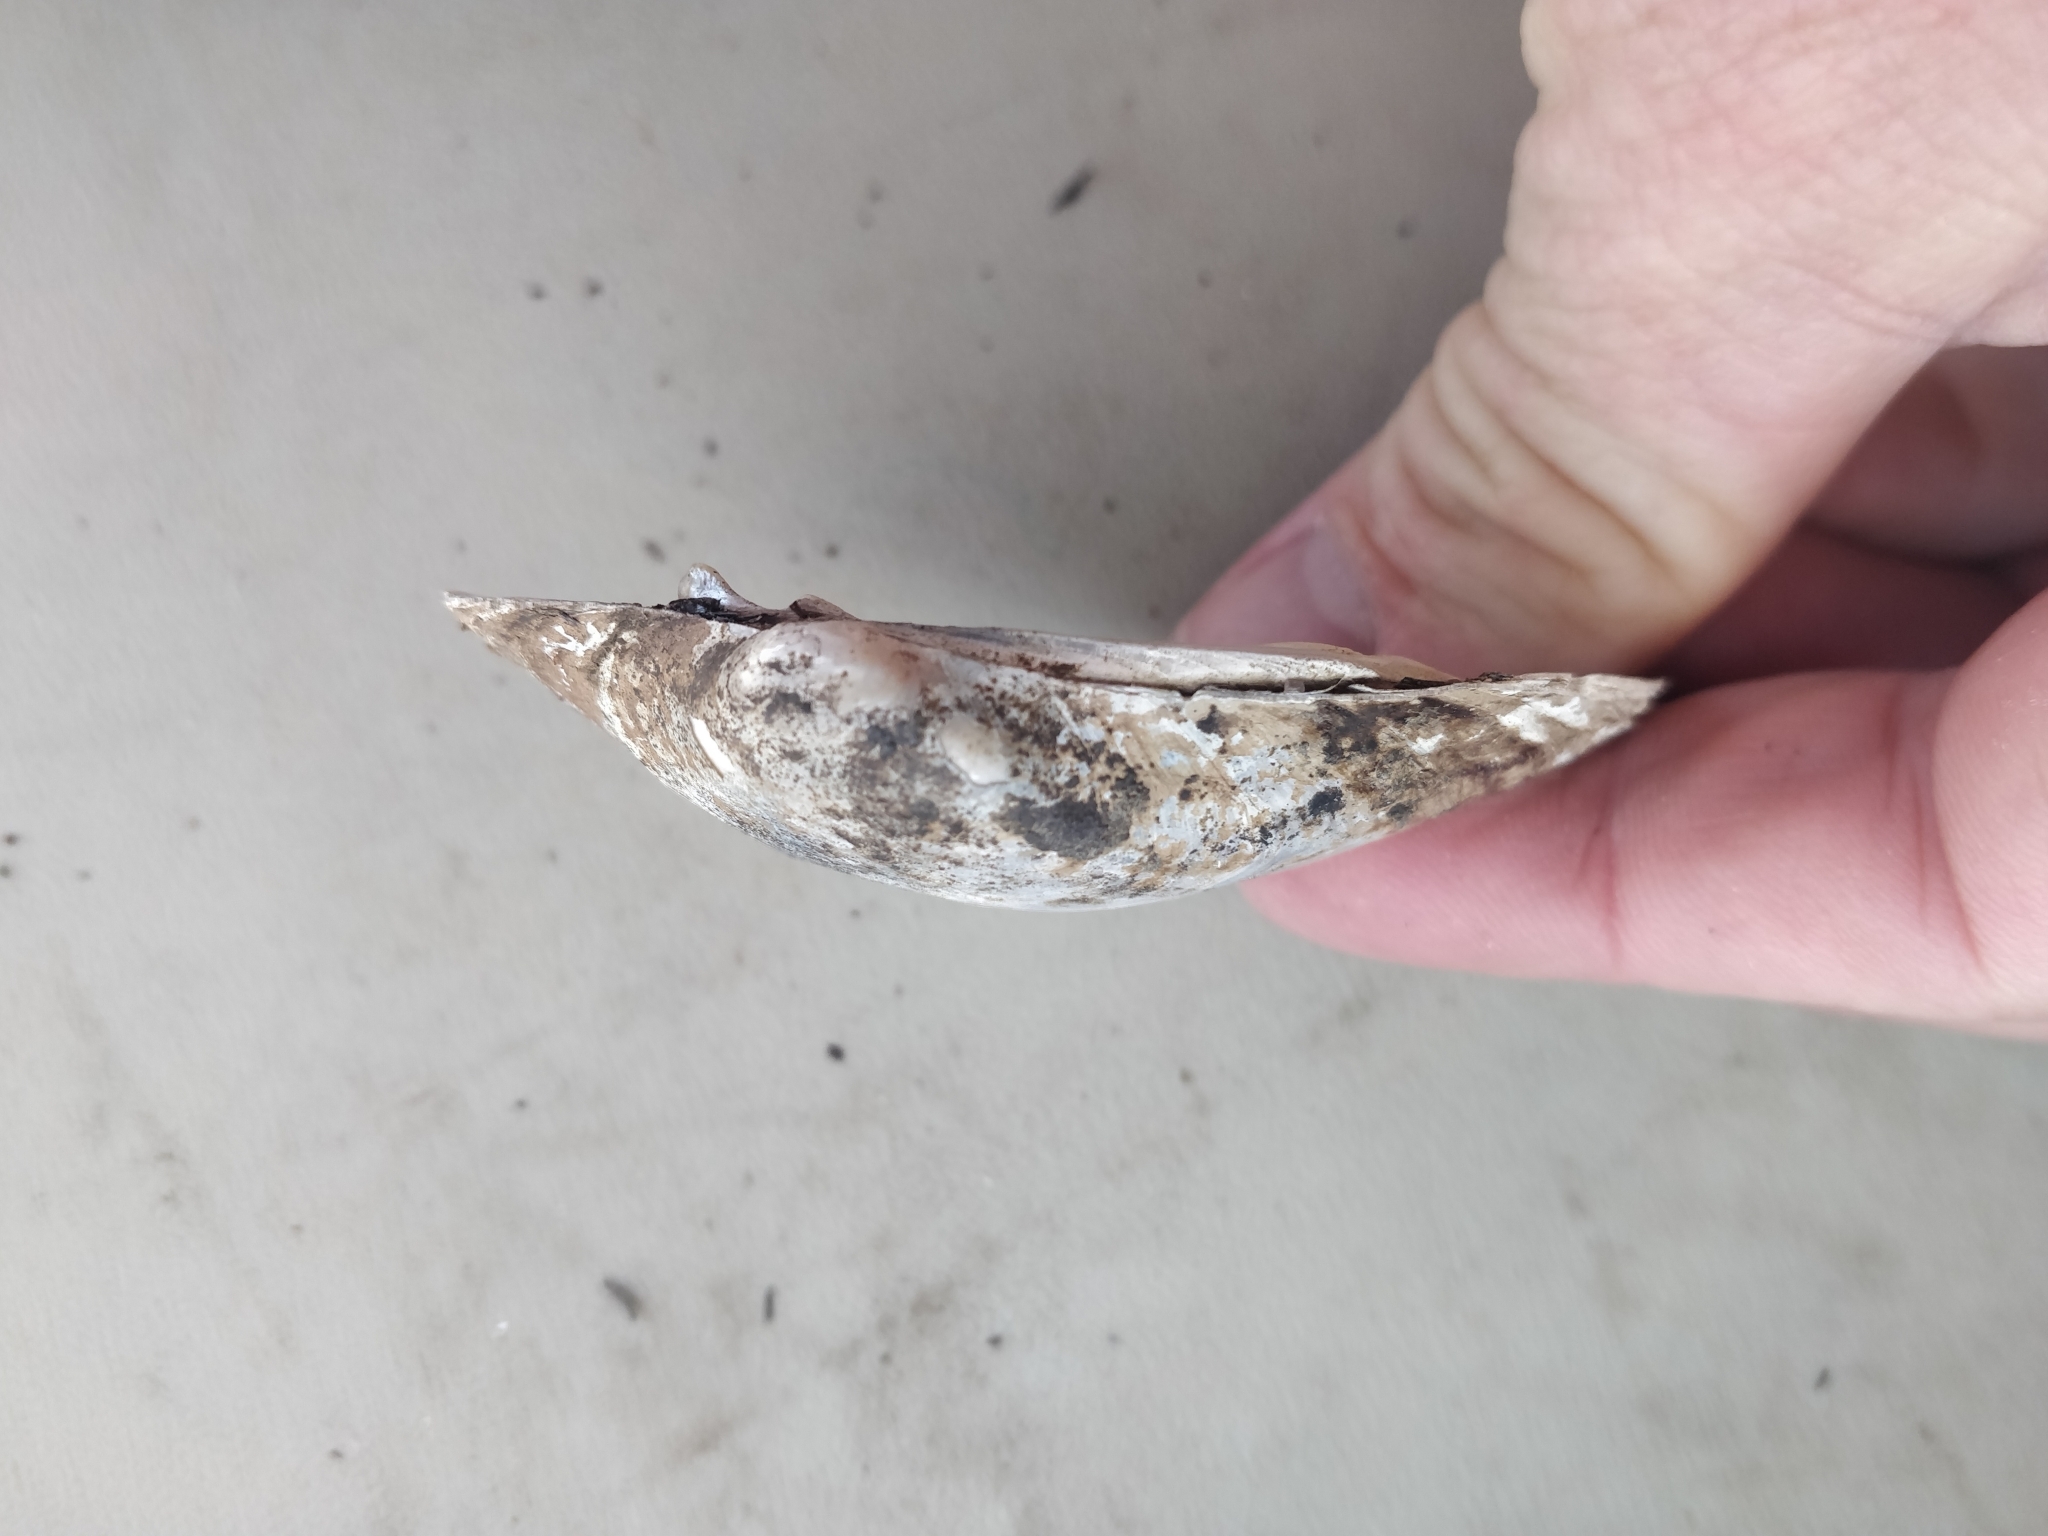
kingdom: Animalia
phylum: Mollusca
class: Bivalvia
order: Unionida
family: Unionidae
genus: Lampsilis
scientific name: Lampsilis cardium
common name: Plain pocketbook
